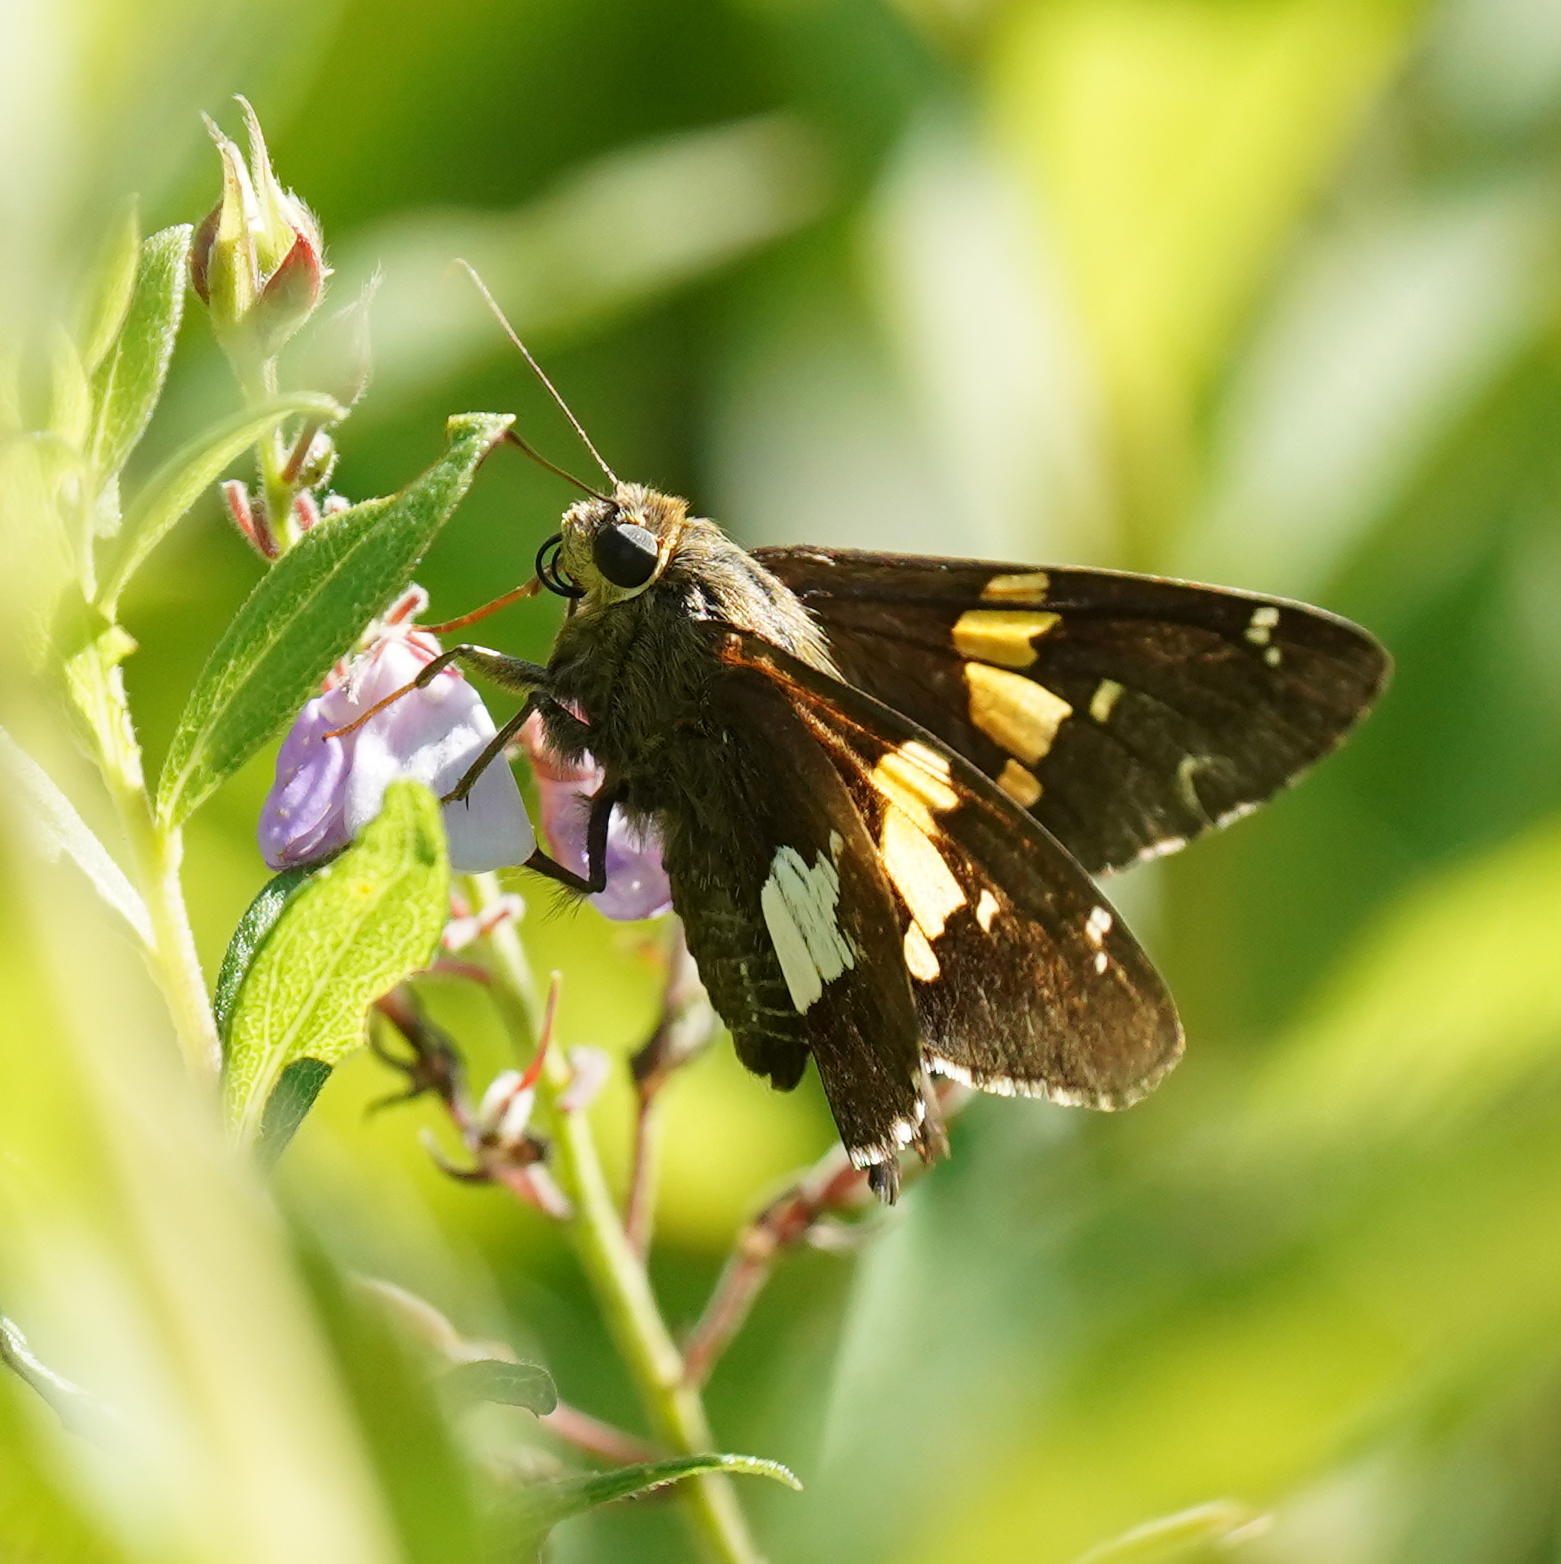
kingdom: Animalia
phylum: Arthropoda
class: Insecta
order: Lepidoptera
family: Hesperiidae
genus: Epargyreus
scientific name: Epargyreus clarus
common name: Silver-spotted skipper
